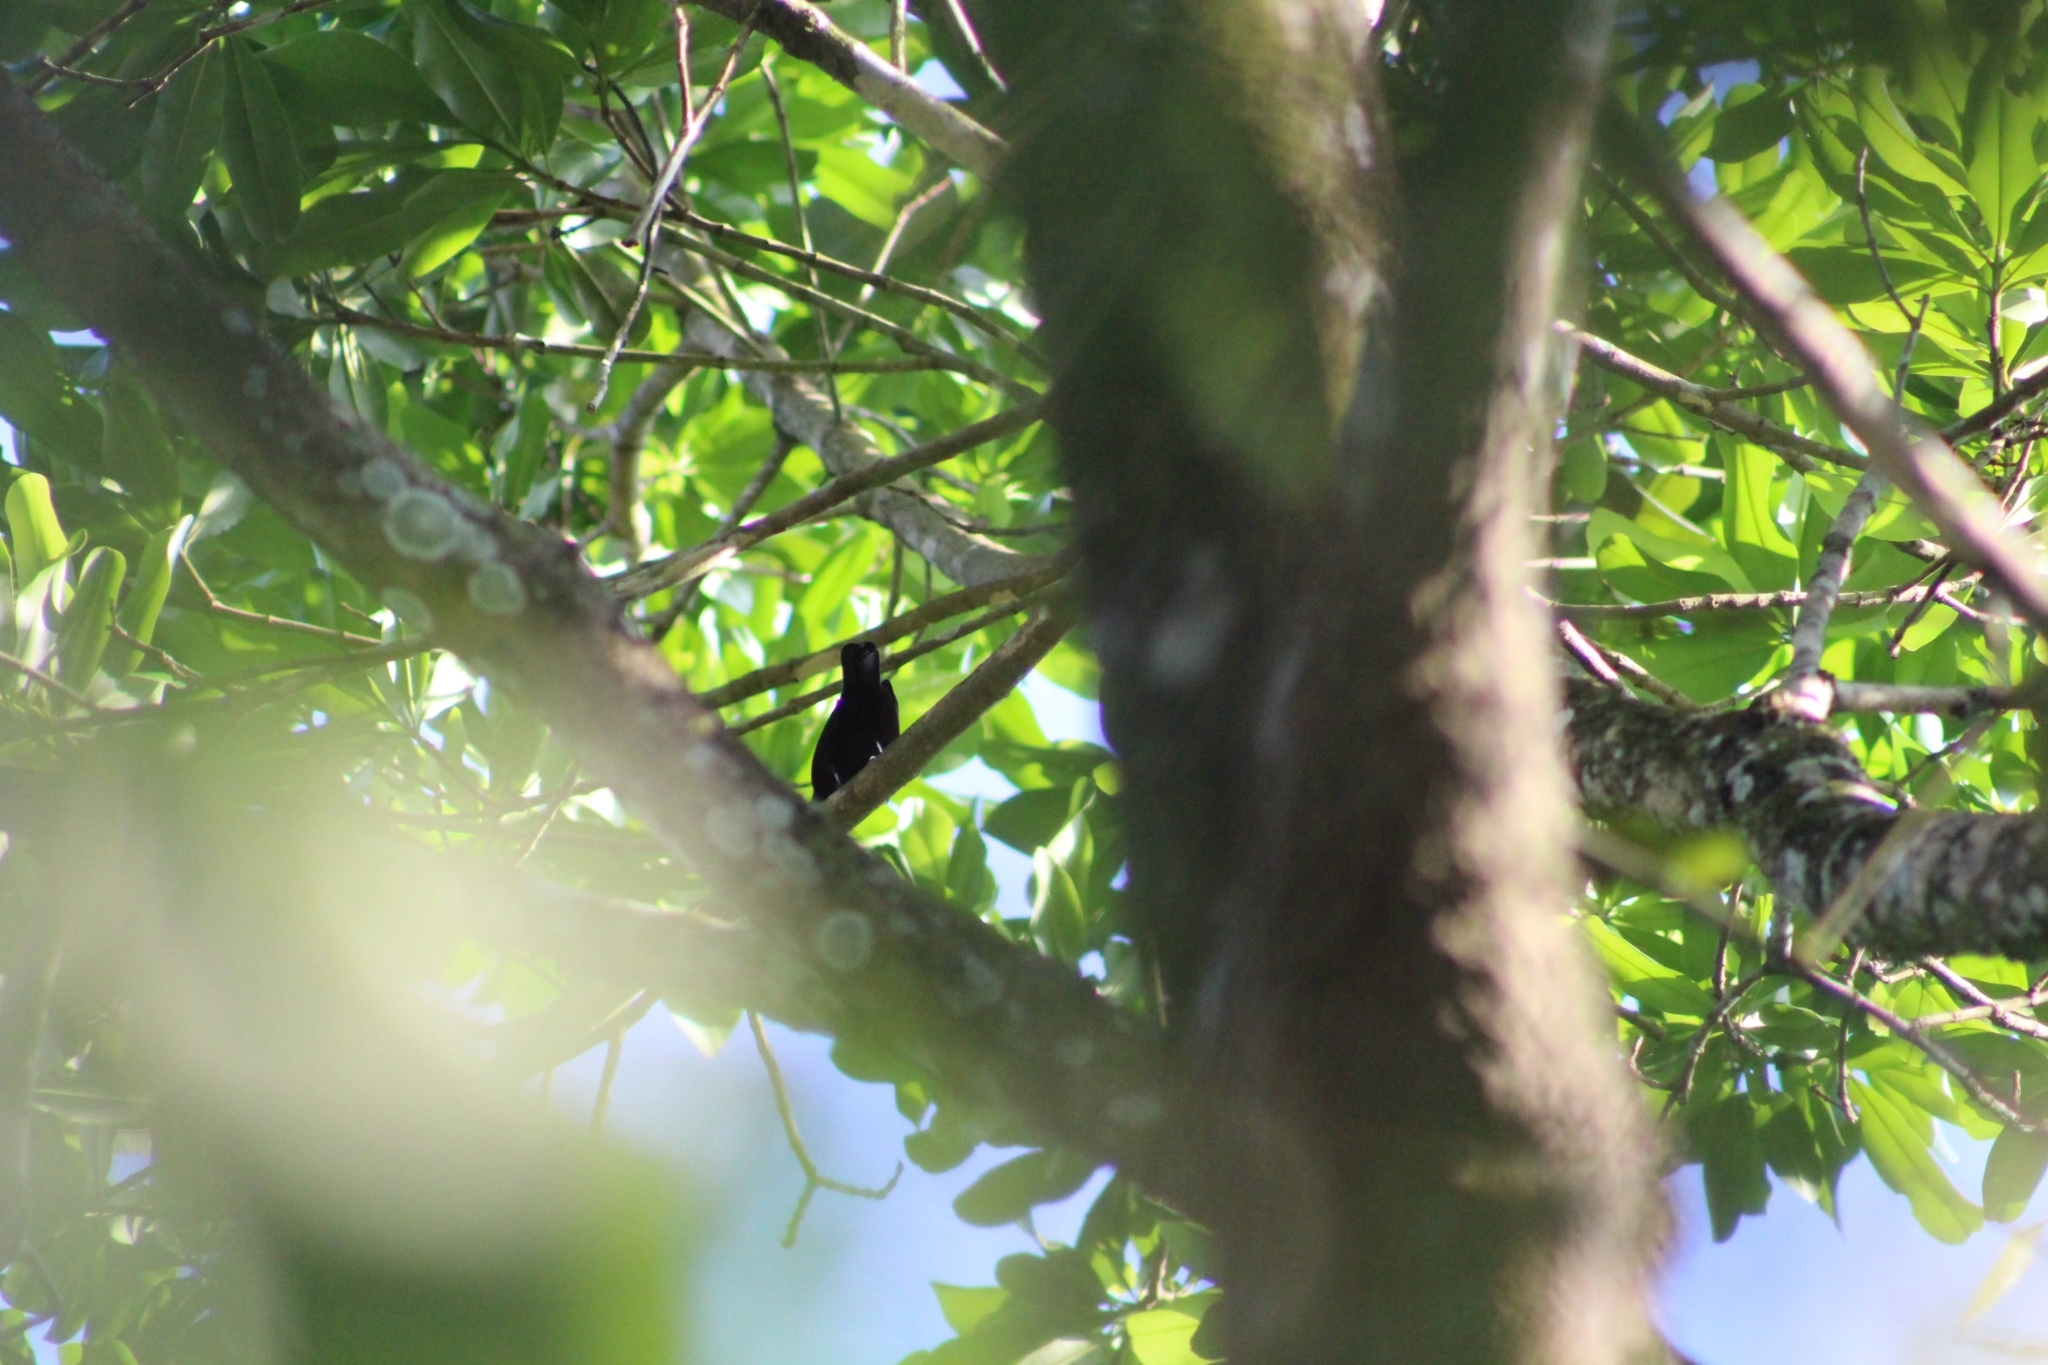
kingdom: Animalia
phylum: Chordata
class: Aves
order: Passeriformes
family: Thraupidae
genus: Ramphocelus
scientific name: Ramphocelus carbo
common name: Silver-beaked tanager
